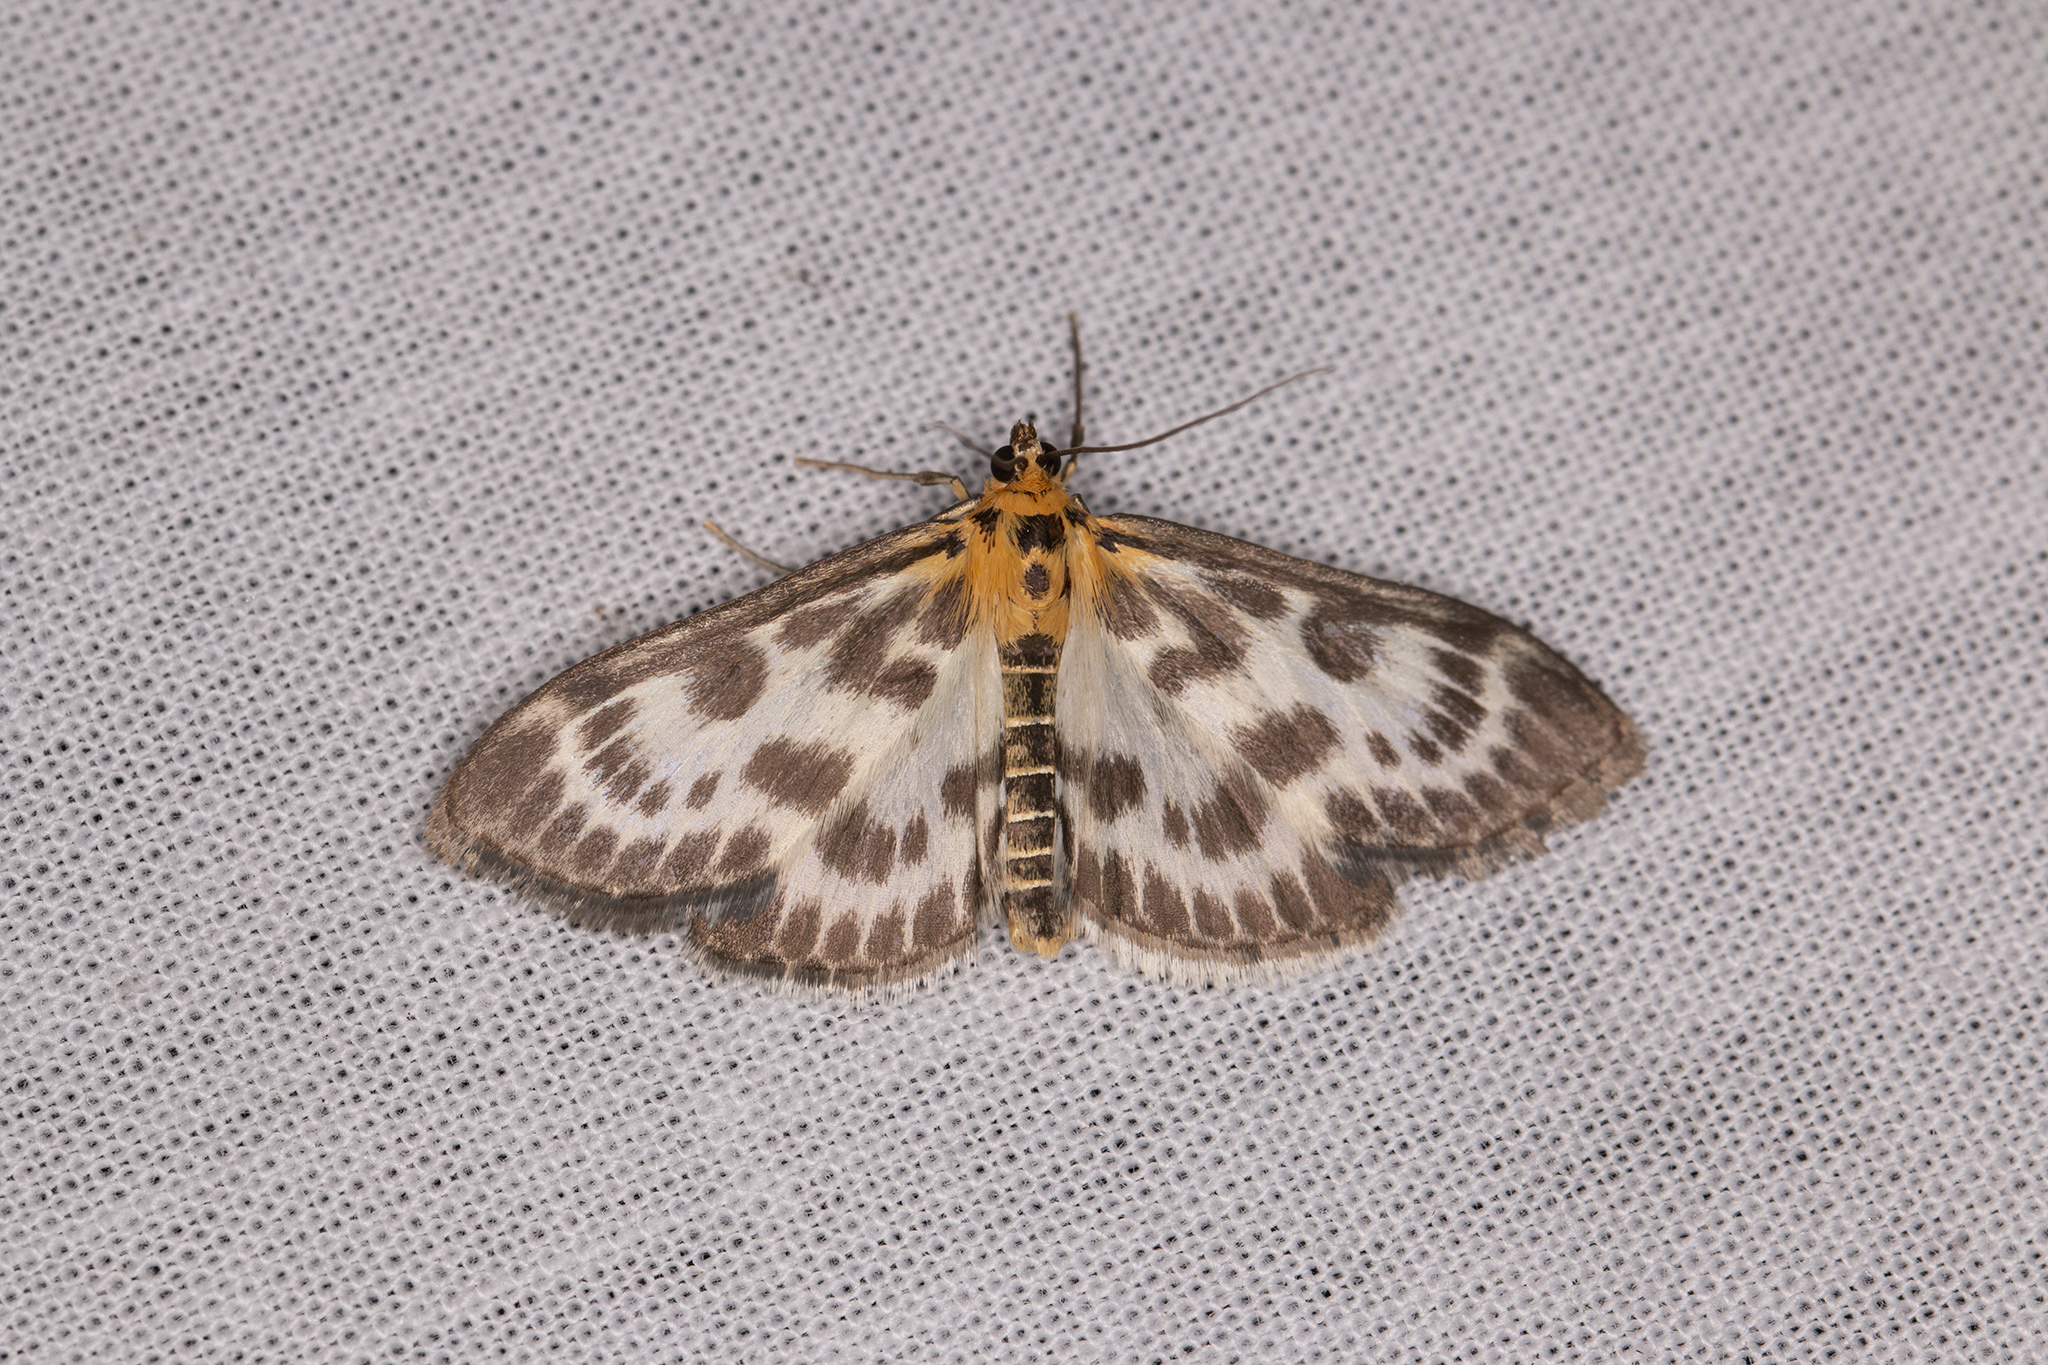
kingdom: Animalia
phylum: Arthropoda
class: Insecta
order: Lepidoptera
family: Crambidae
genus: Anania
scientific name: Anania hortulata
